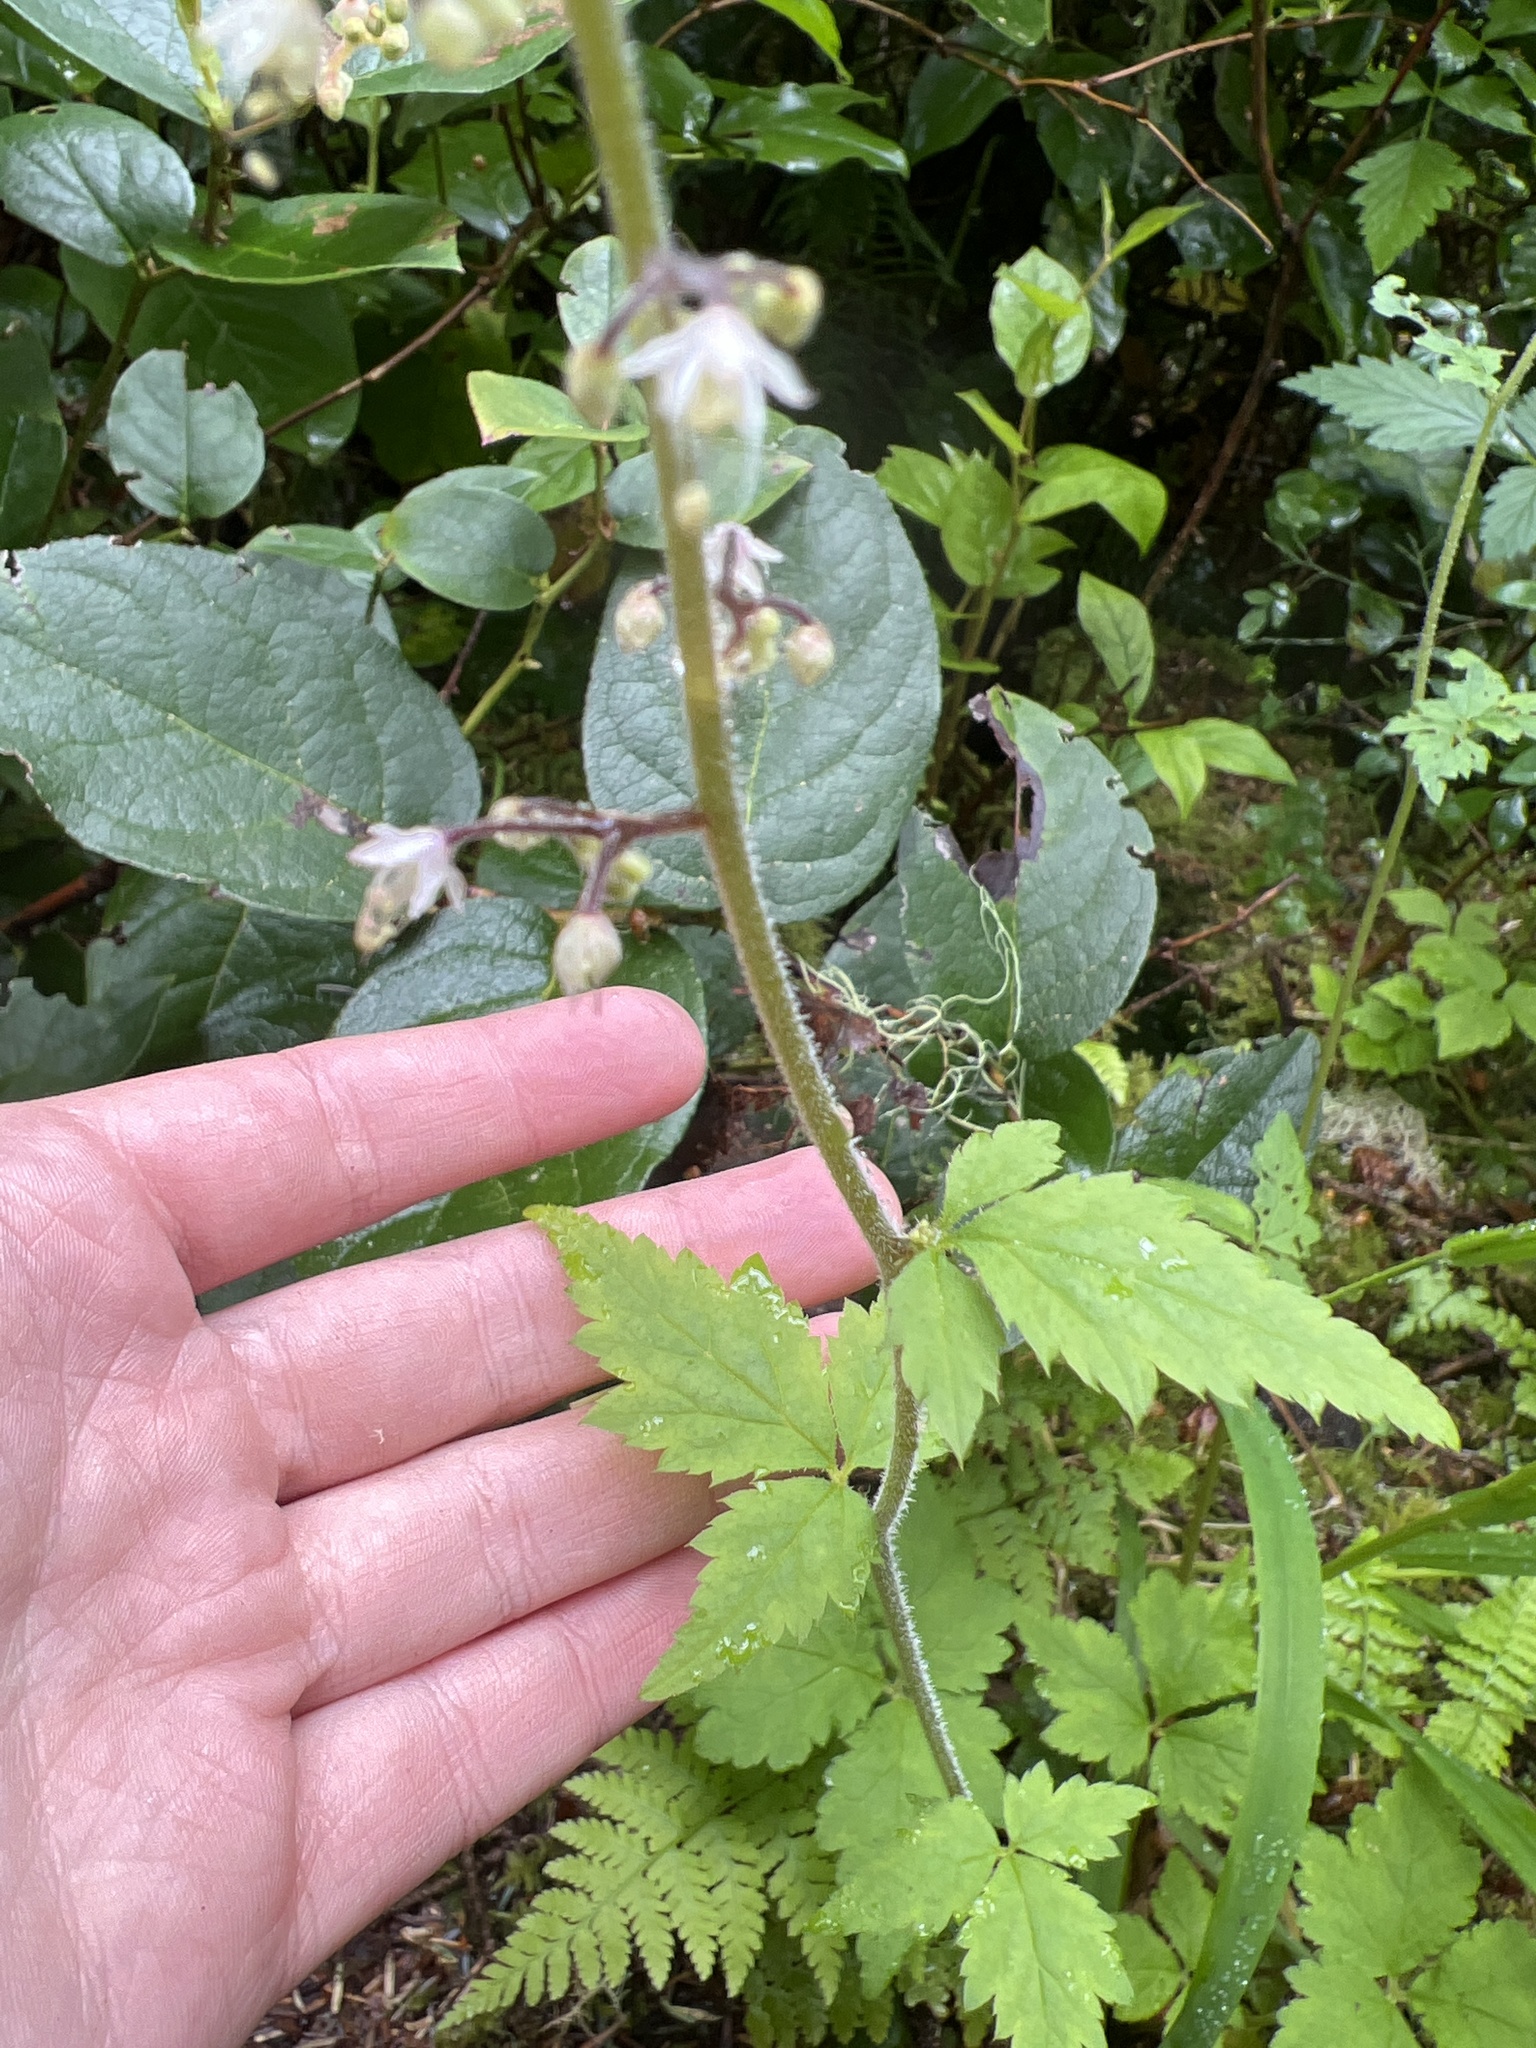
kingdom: Plantae
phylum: Tracheophyta
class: Magnoliopsida
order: Saxifragales
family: Saxifragaceae
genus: Tiarella
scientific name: Tiarella trifoliata
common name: Sugar-scoop
